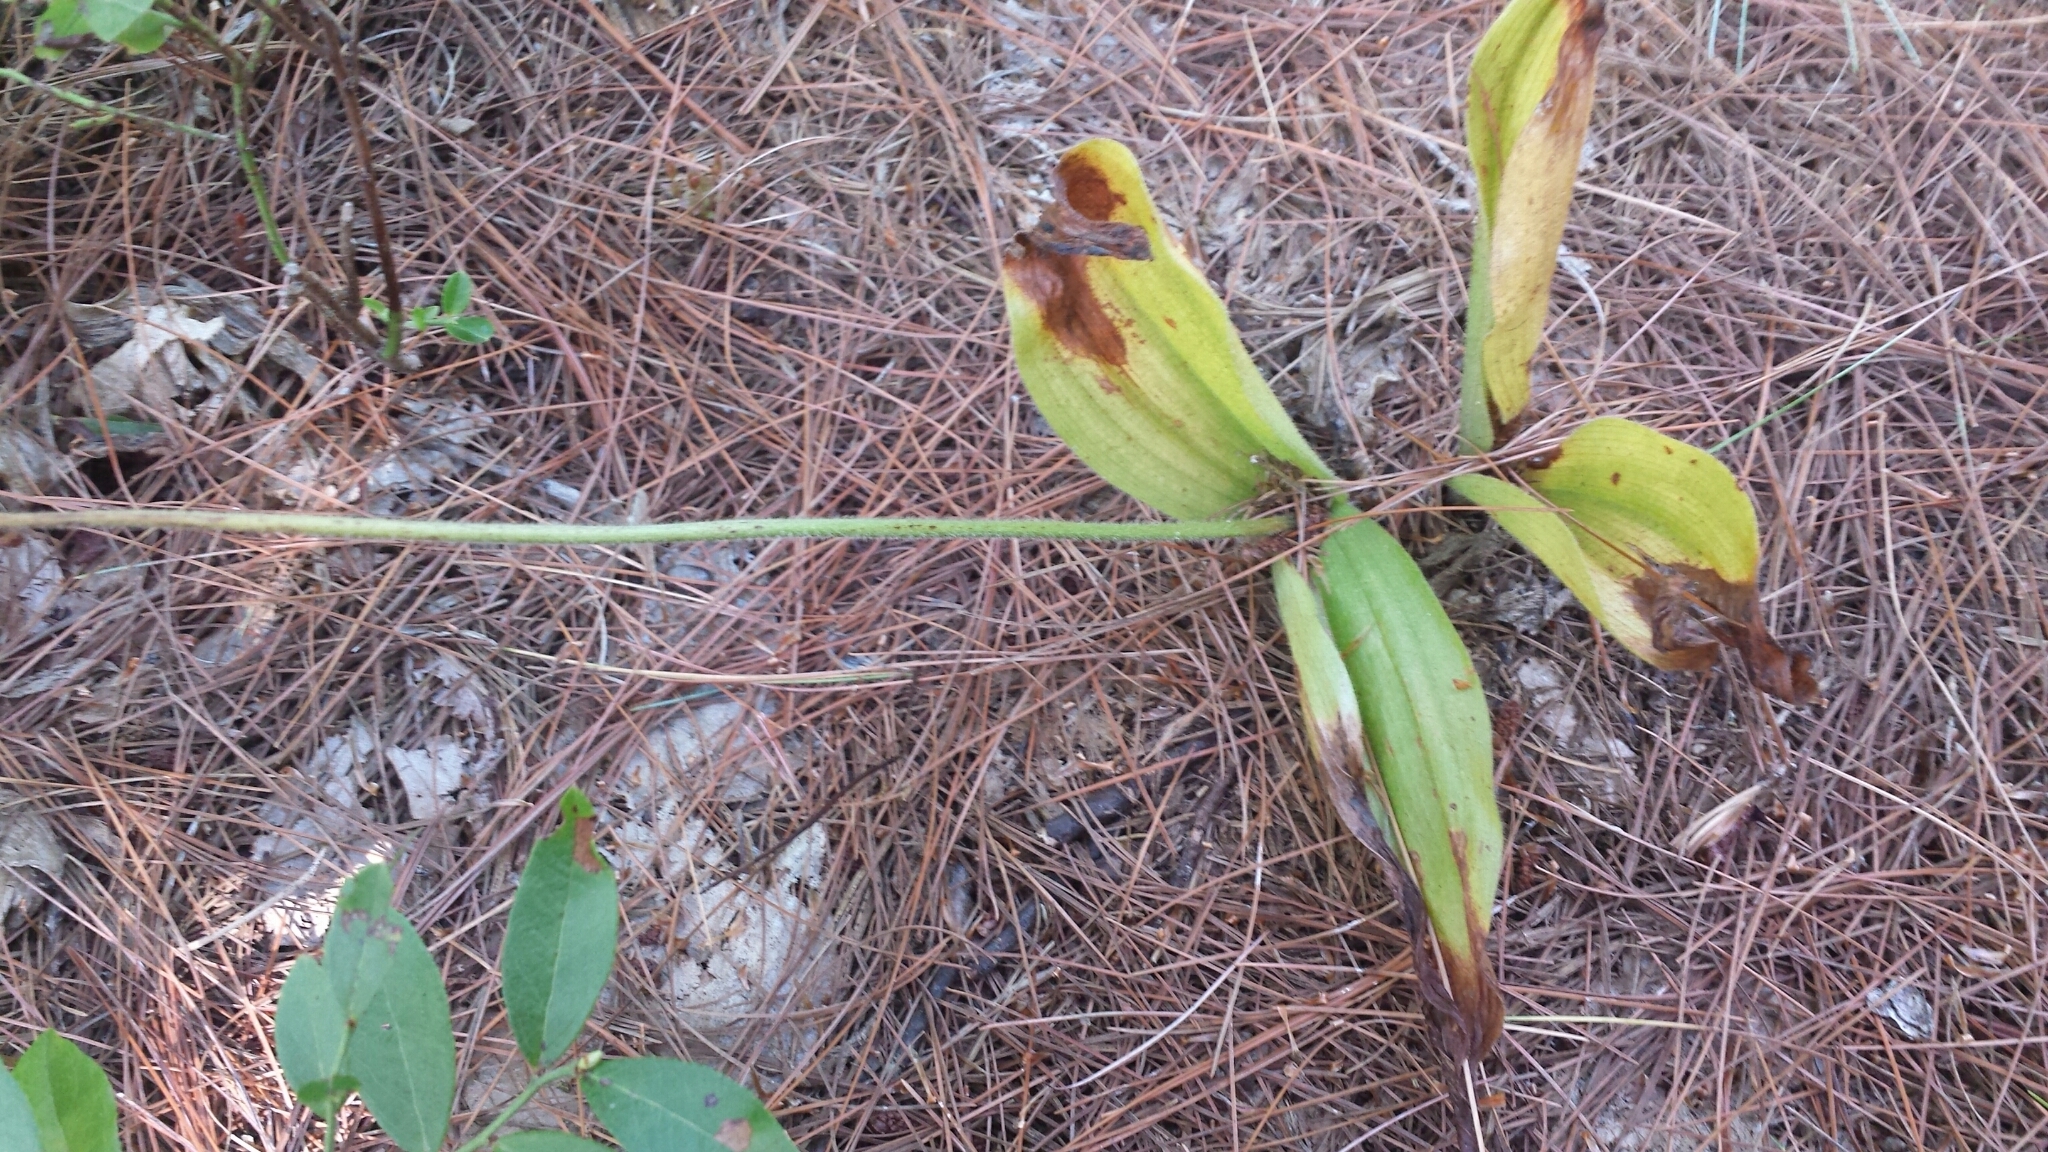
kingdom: Plantae
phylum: Tracheophyta
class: Liliopsida
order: Asparagales
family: Orchidaceae
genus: Cypripedium
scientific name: Cypripedium acaule
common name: Pink lady's-slipper
